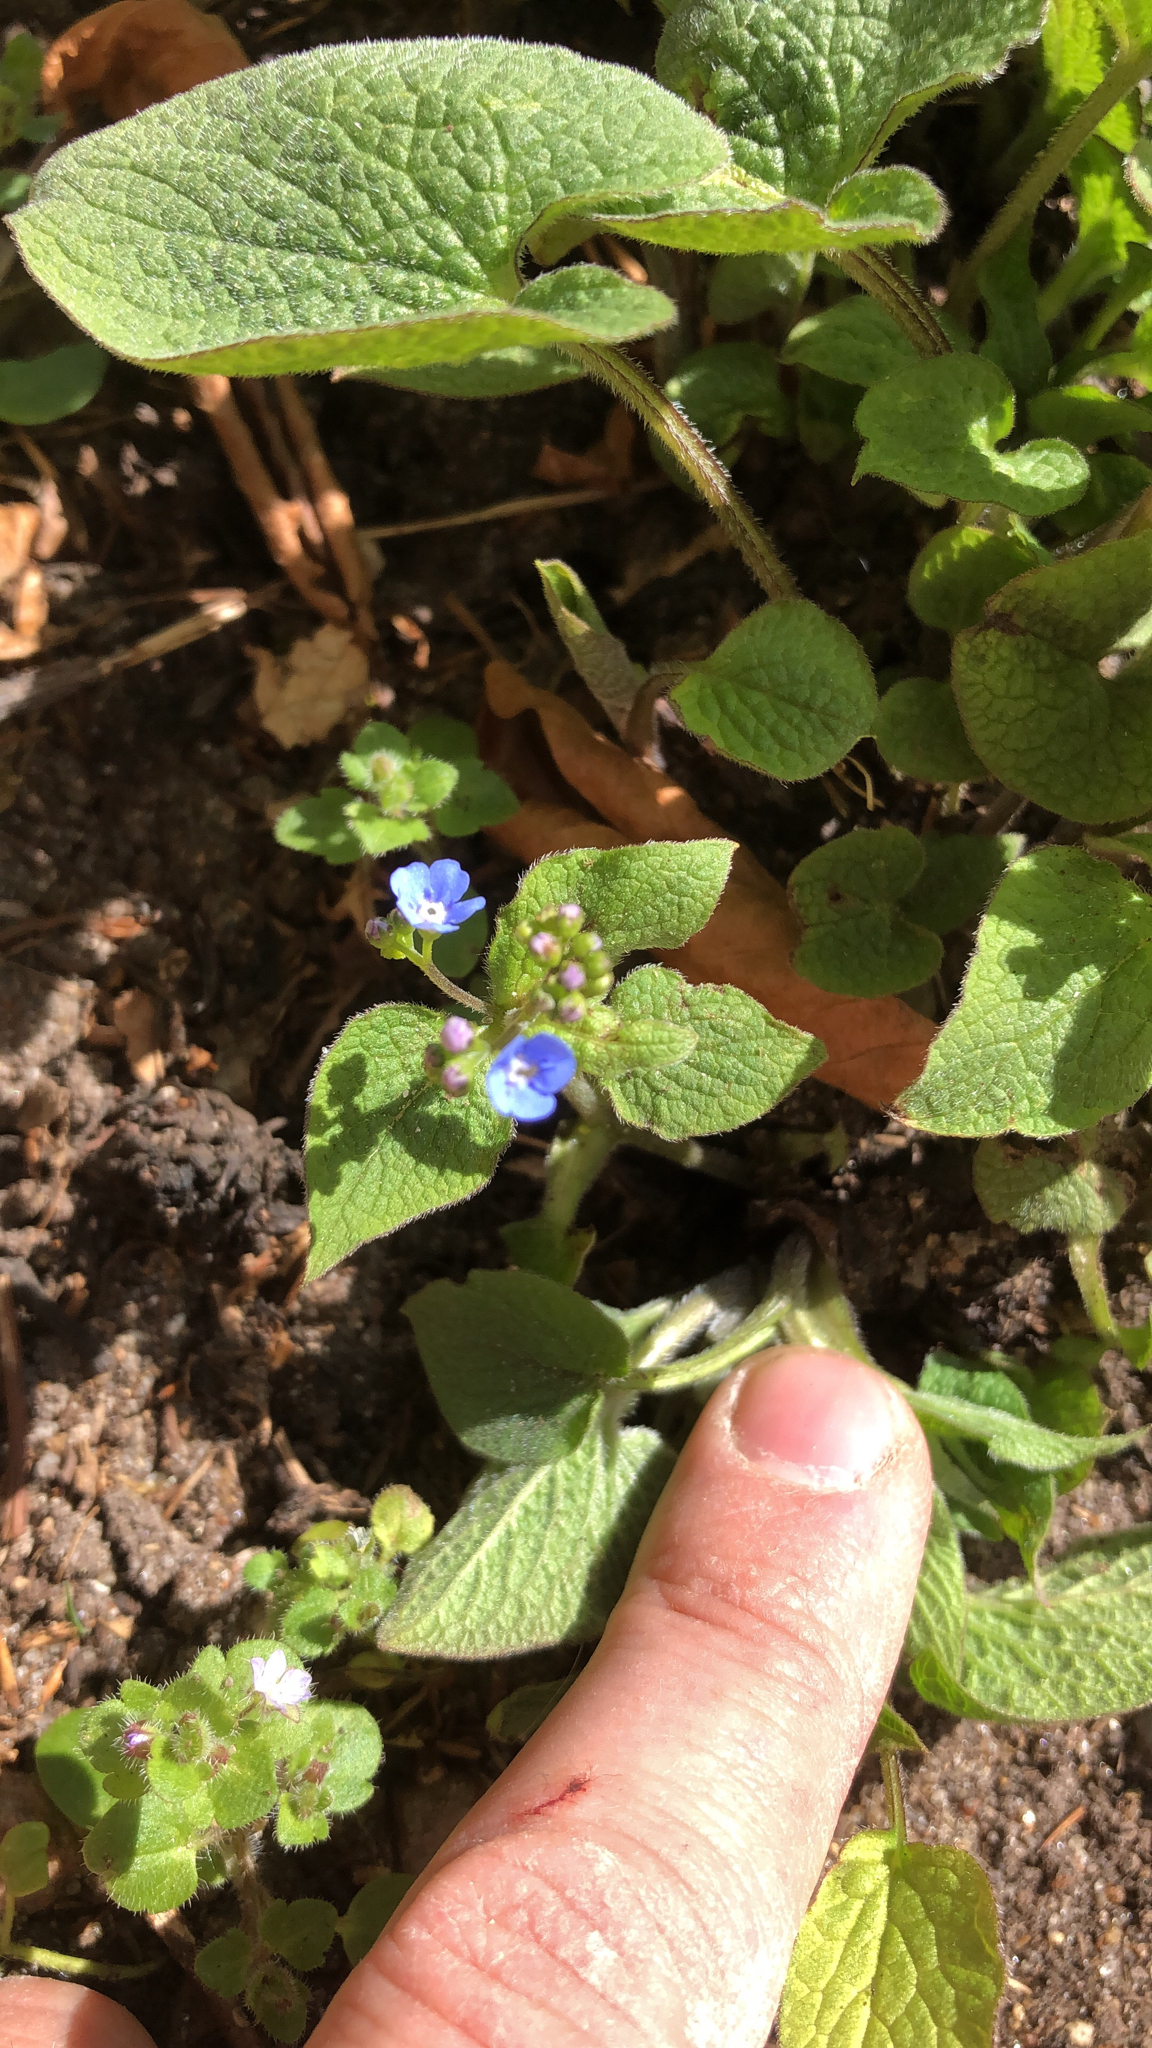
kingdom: Plantae
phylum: Tracheophyta
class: Magnoliopsida
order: Boraginales
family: Boraginaceae
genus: Brunnera
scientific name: Brunnera macrophylla
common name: Great forget-me-not
